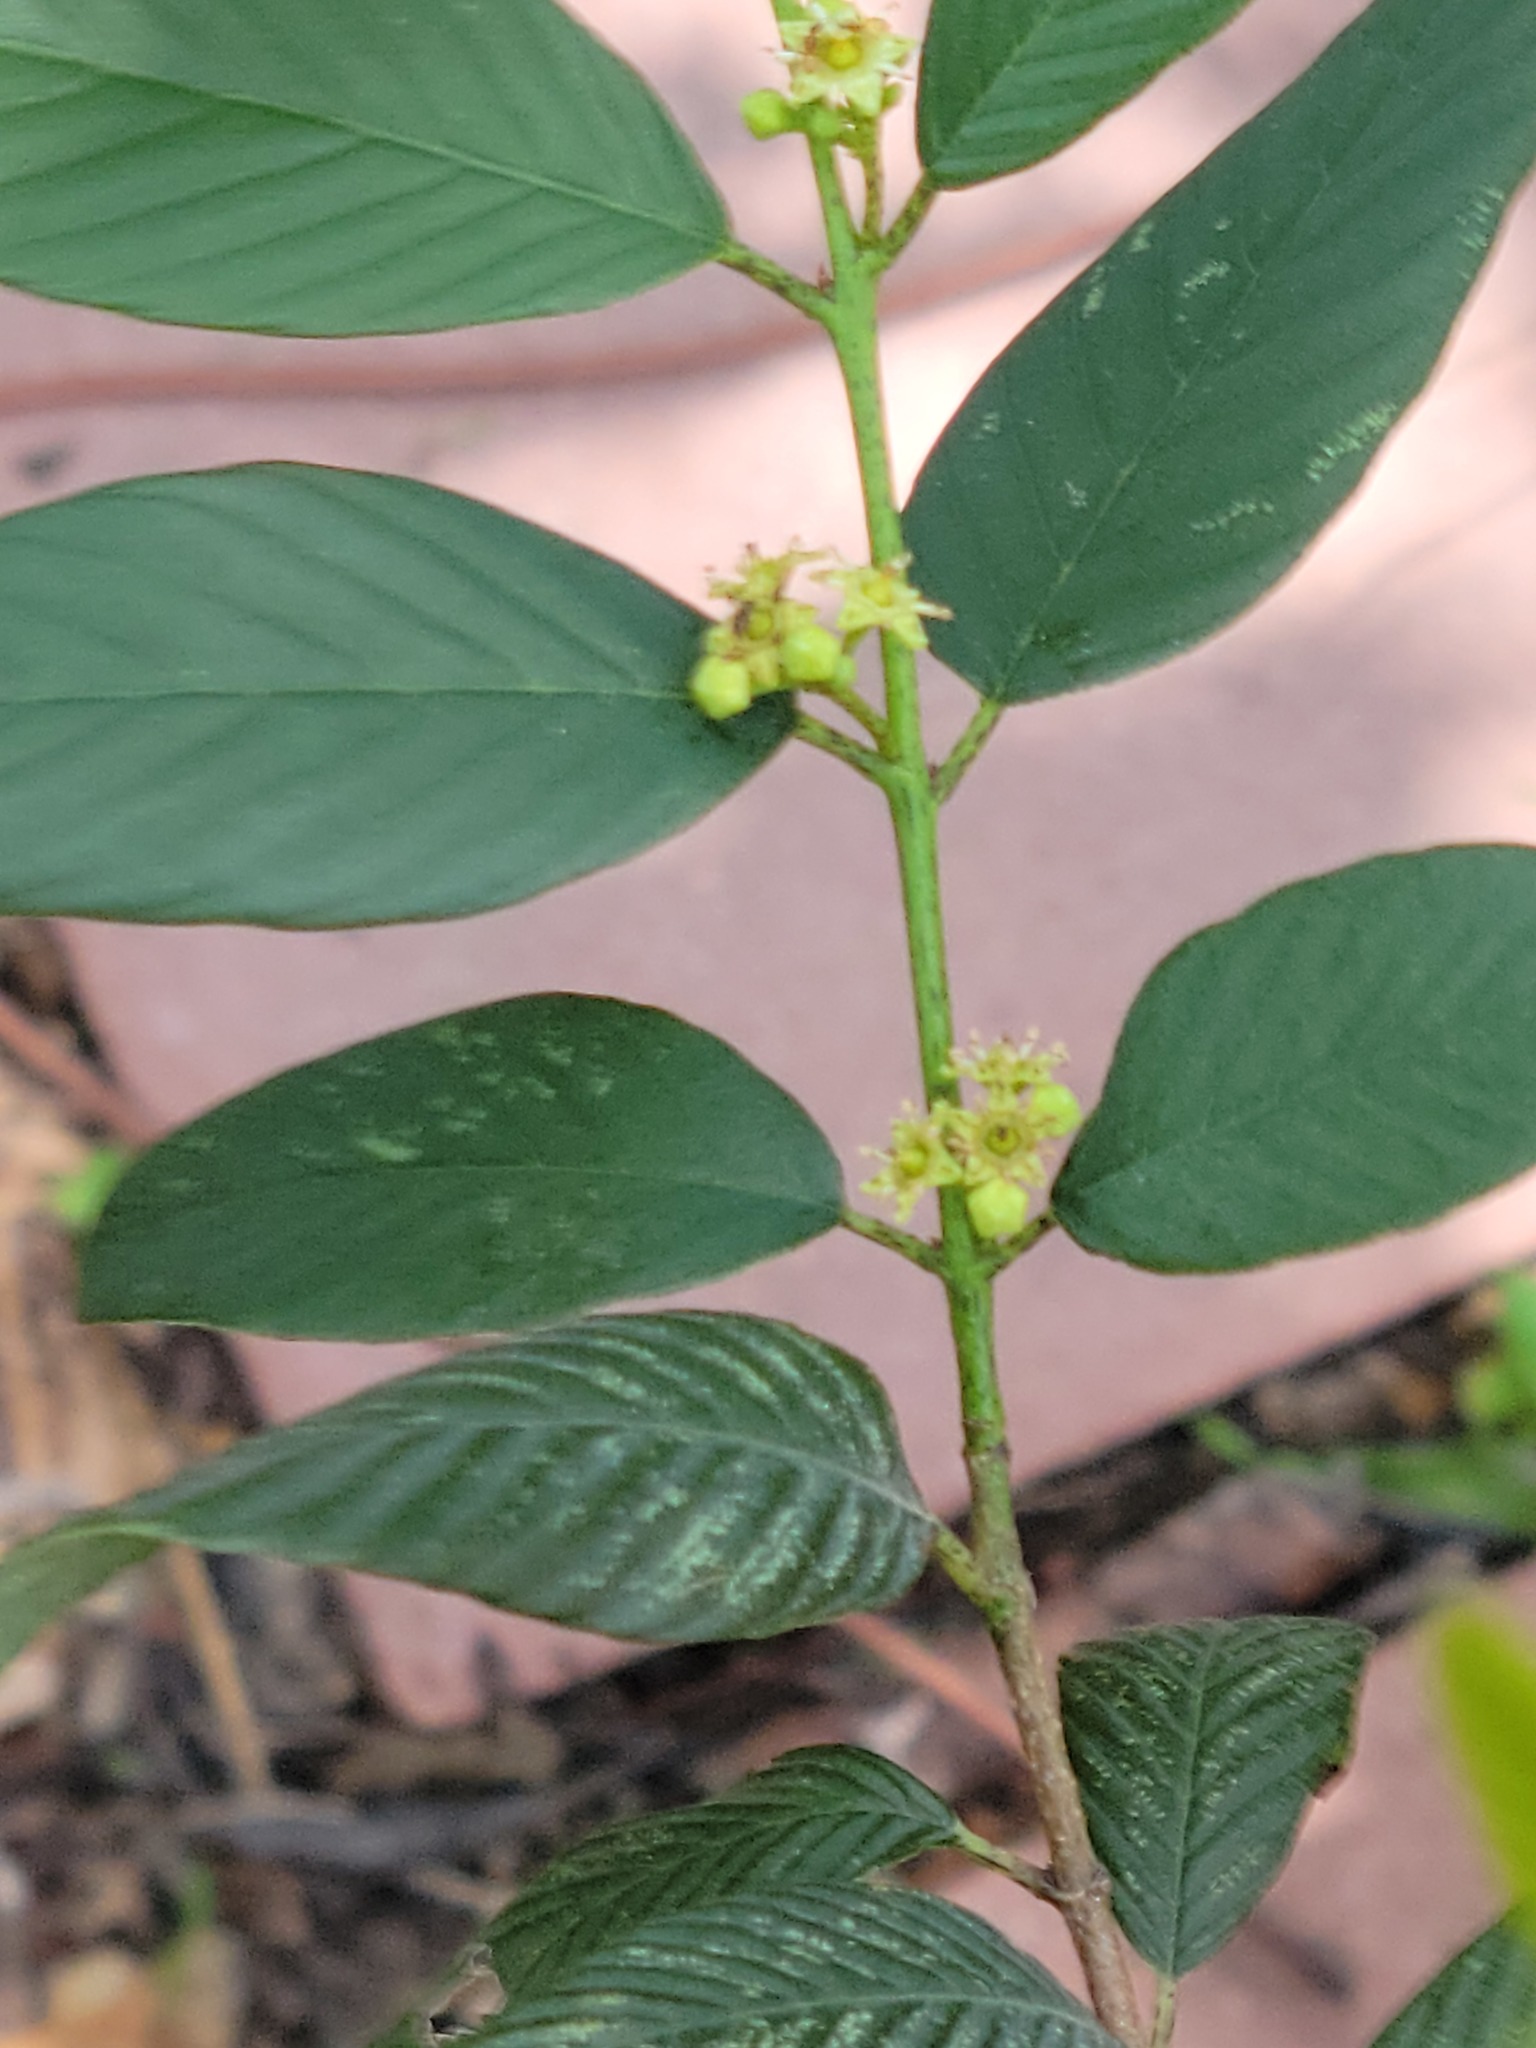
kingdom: Plantae
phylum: Tracheophyta
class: Magnoliopsida
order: Rosales
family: Rhamnaceae
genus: Karwinskia
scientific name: Karwinskia humboldtiana
